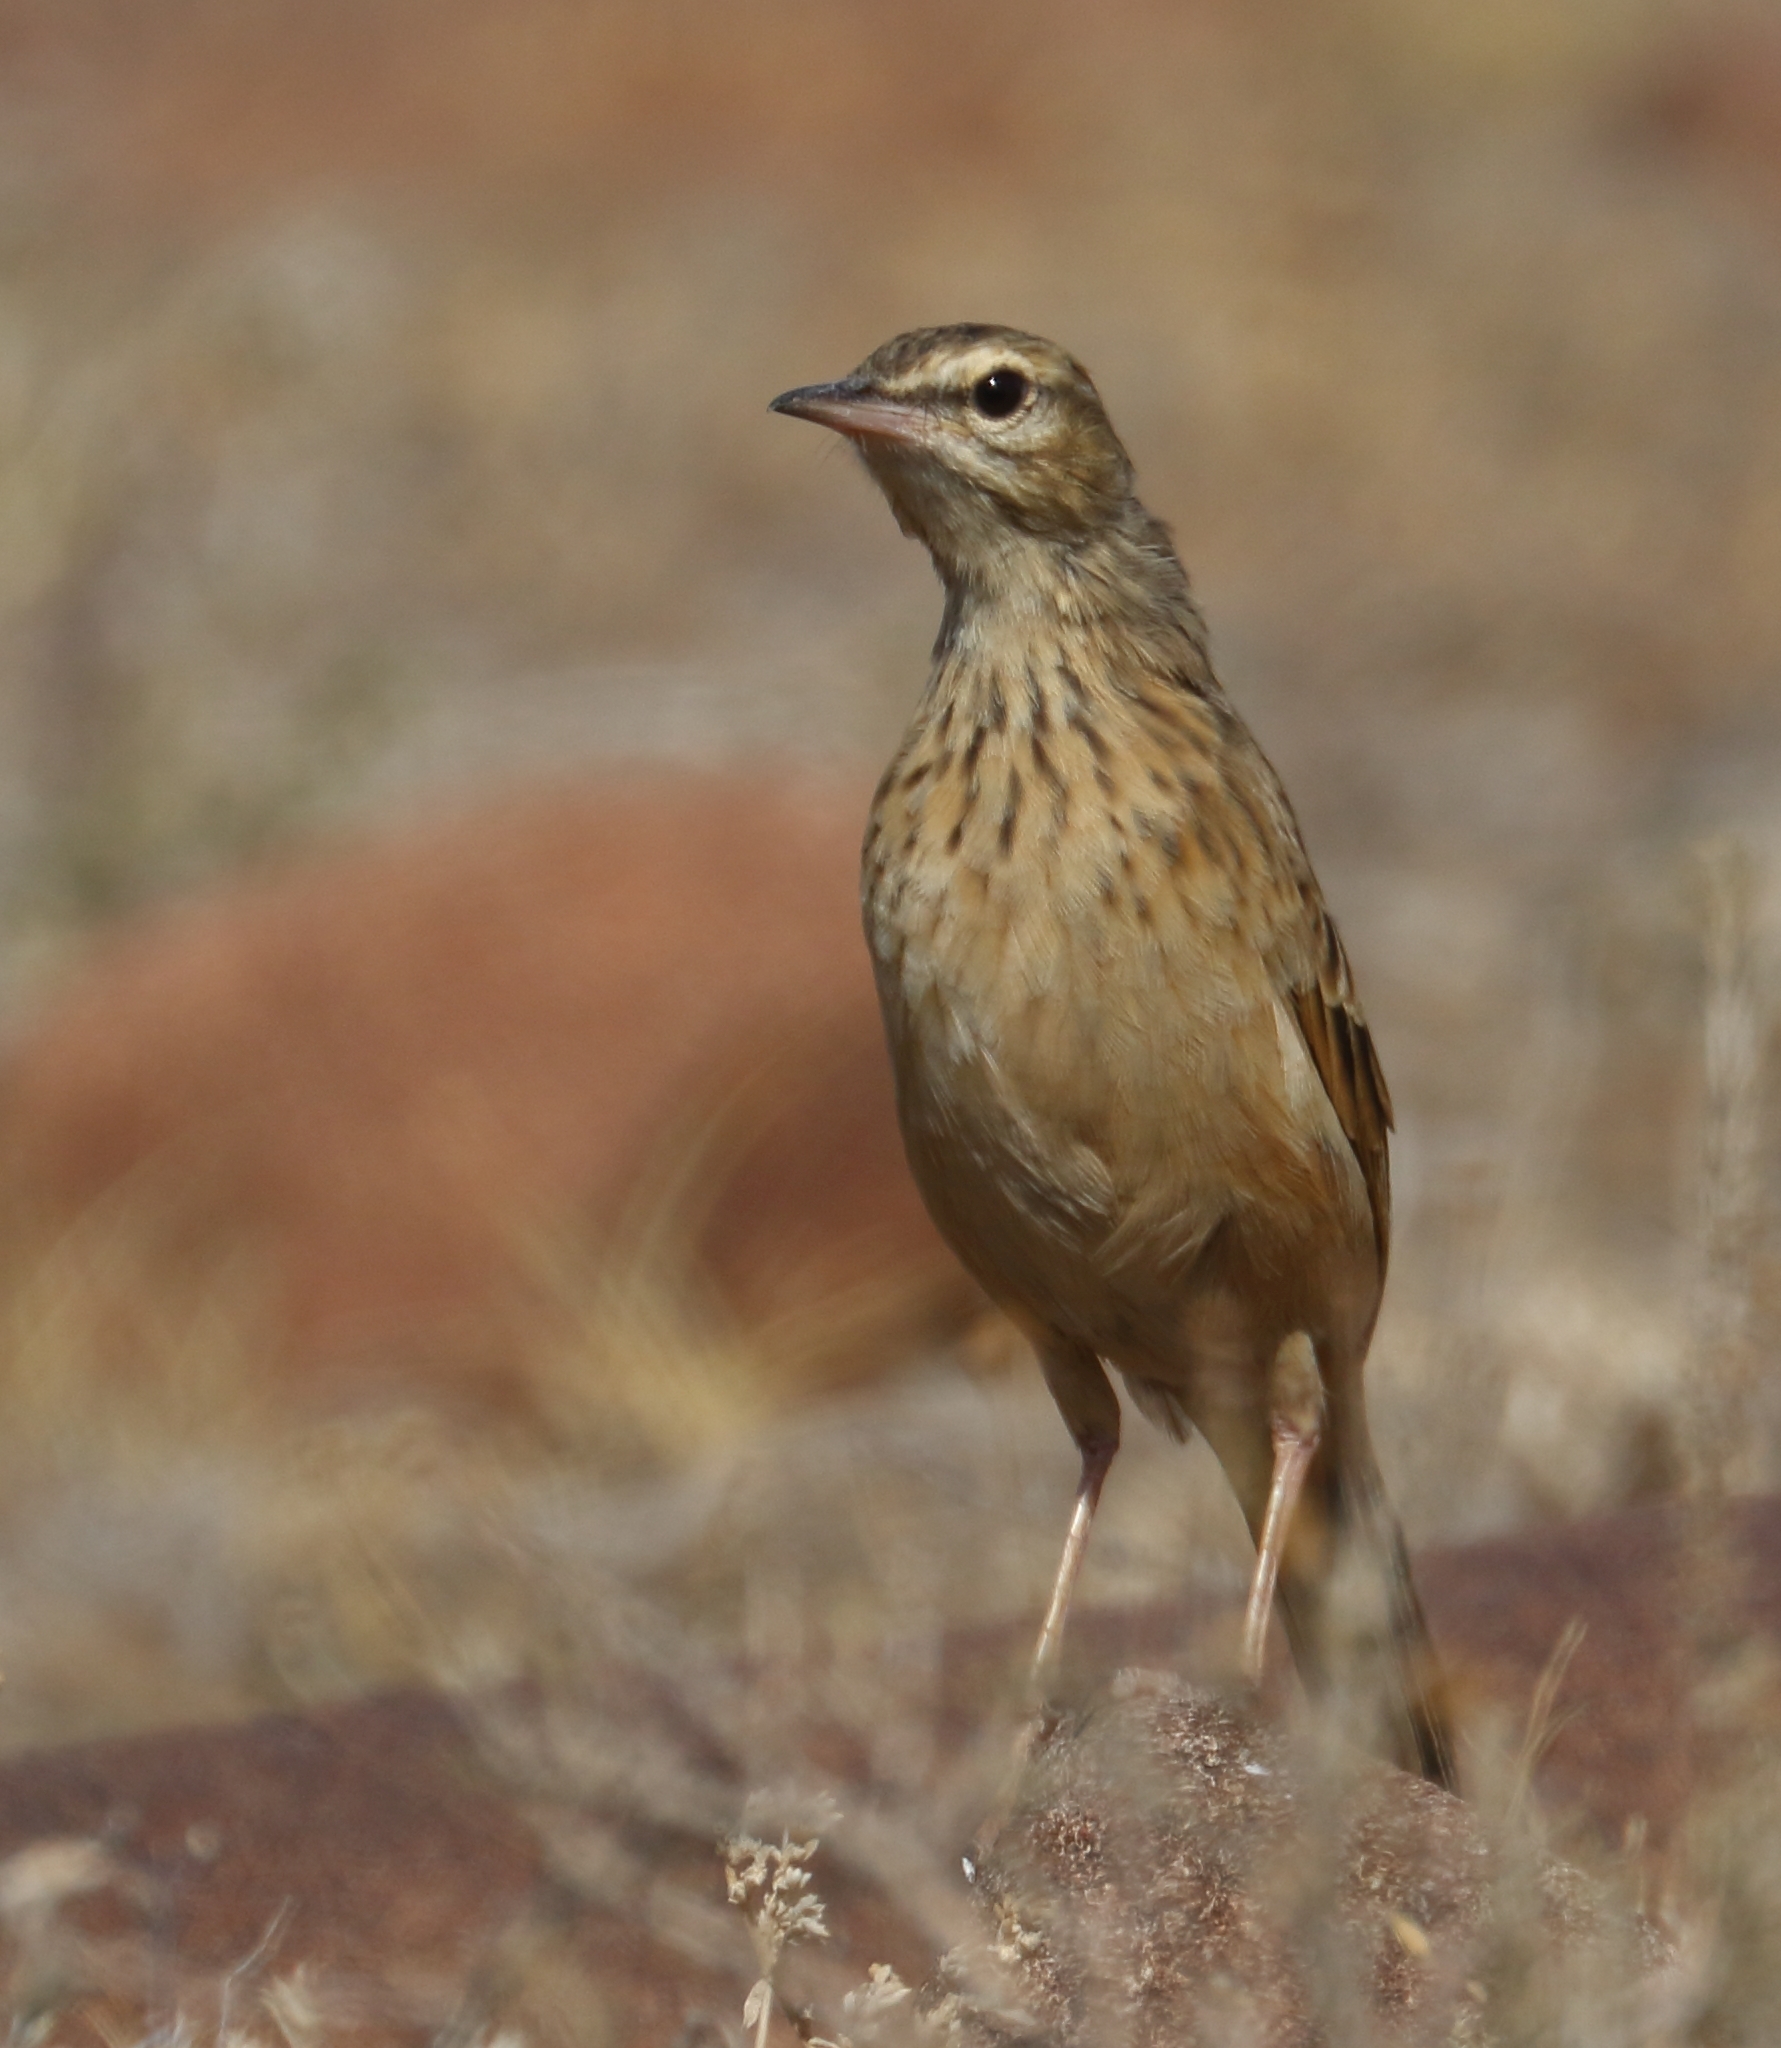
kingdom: Animalia
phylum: Chordata
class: Aves
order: Passeriformes
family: Motacillidae
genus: Anthus
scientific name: Anthus nicholsoni
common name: Nicholson's pipit
